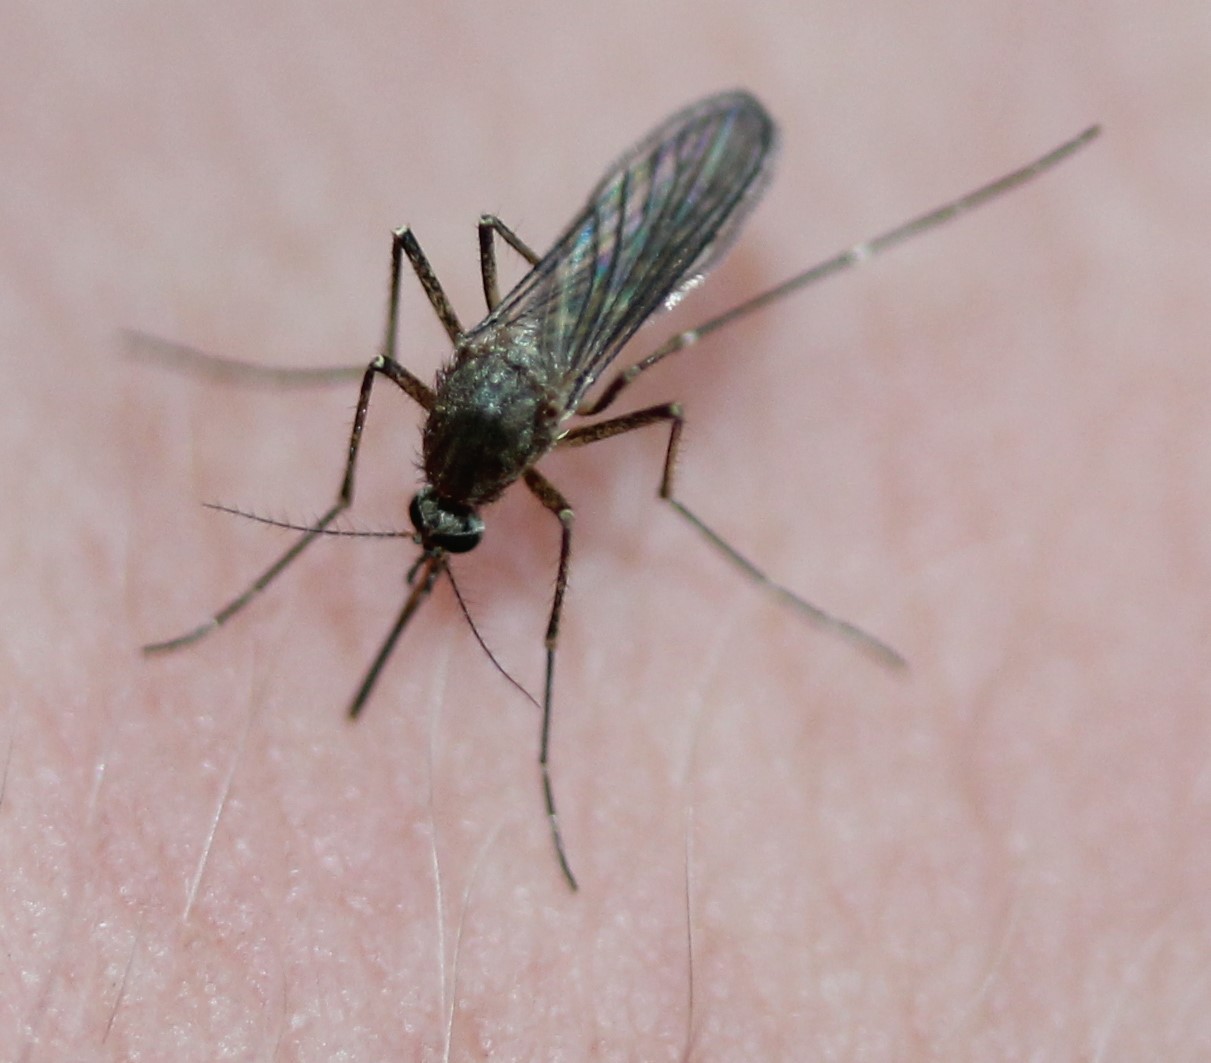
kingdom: Animalia
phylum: Arthropoda
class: Insecta
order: Diptera
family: Culicidae
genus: Aedes
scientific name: Aedes vexans
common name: Inland floodwater mosquito
